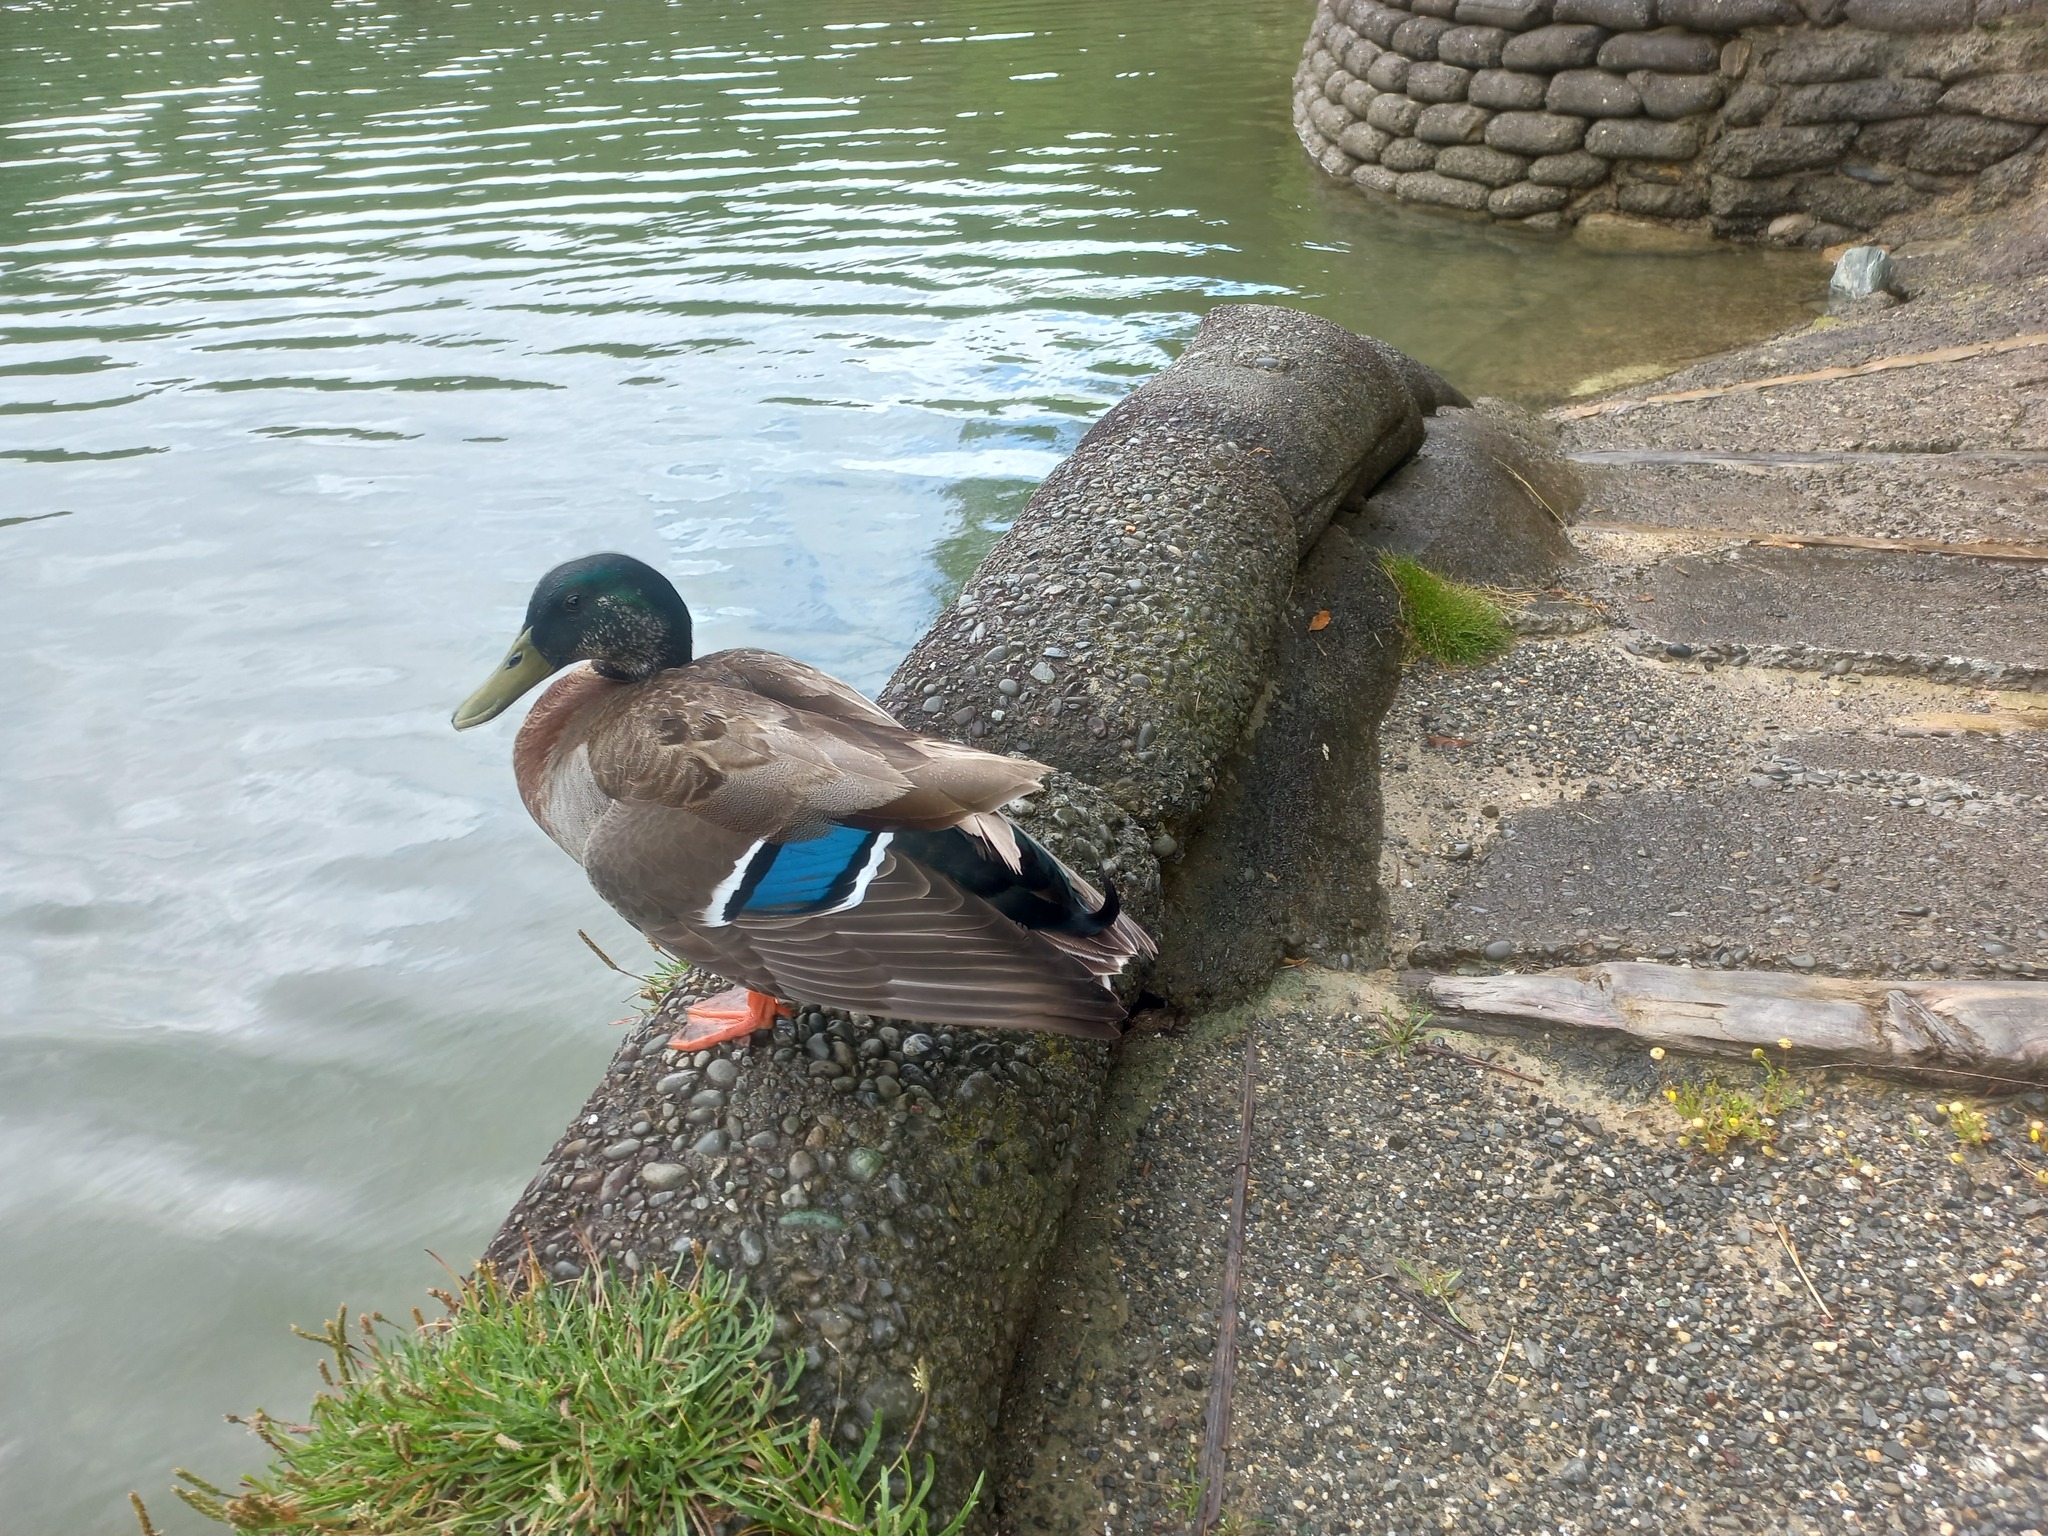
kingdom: Animalia
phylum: Chordata
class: Aves
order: Anseriformes
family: Anatidae
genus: Anas
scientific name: Anas platyrhynchos
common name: Mallard
